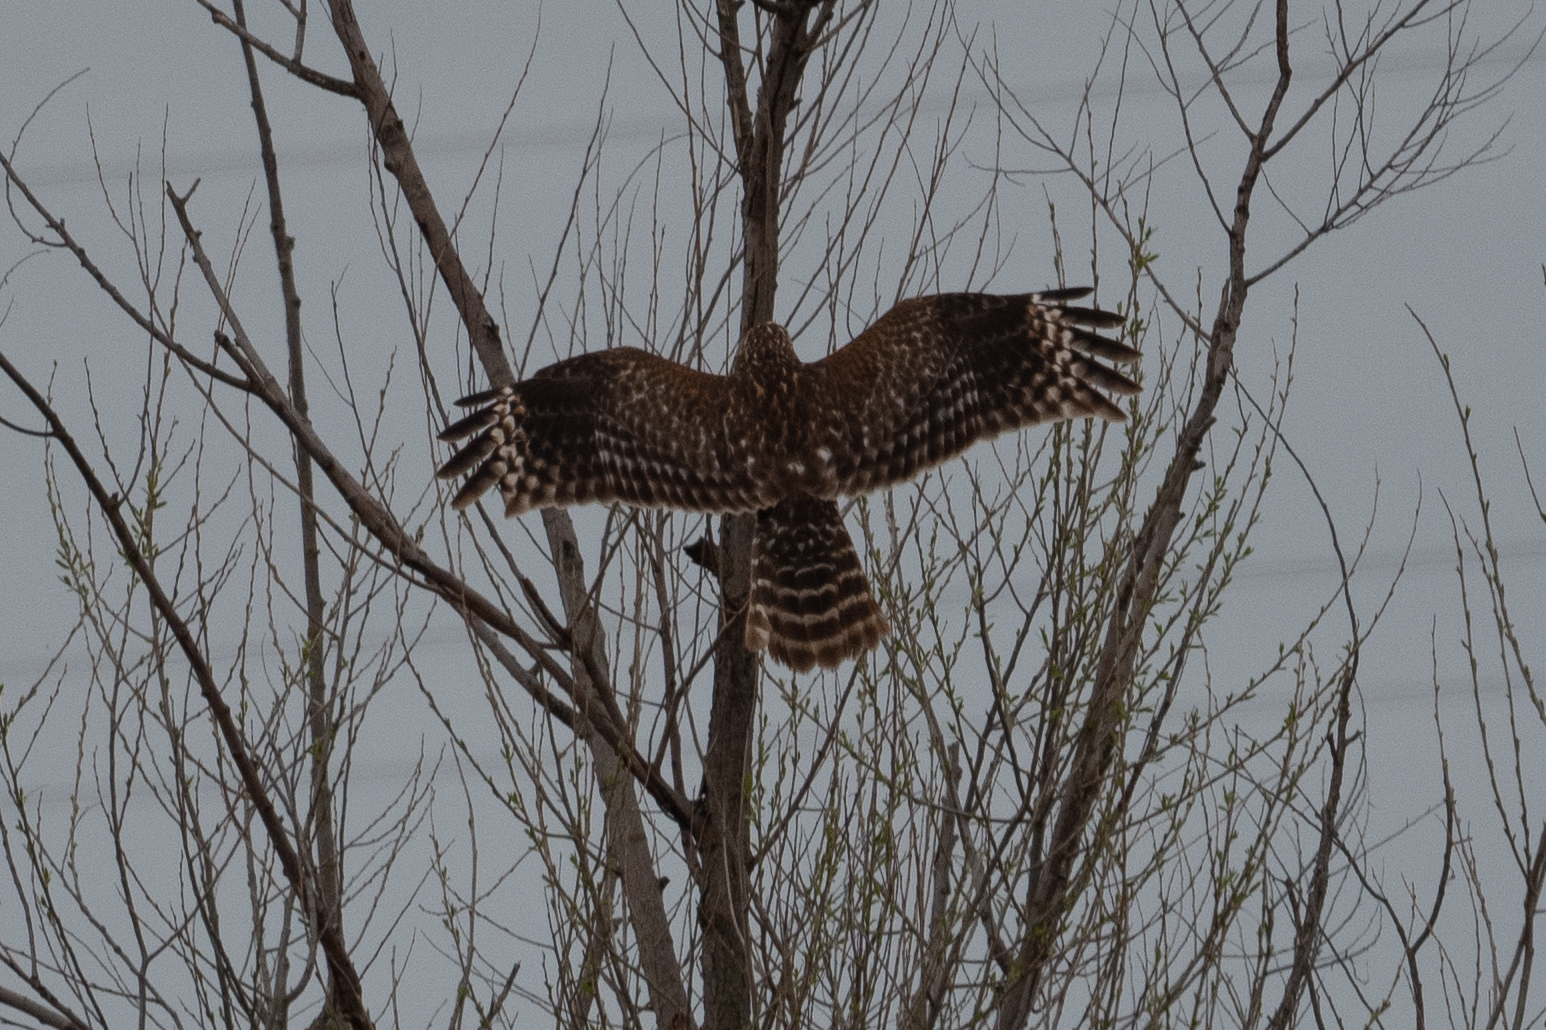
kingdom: Animalia
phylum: Chordata
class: Aves
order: Accipitriformes
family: Accipitridae
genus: Buteo
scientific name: Buteo lineatus
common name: Red-shouldered hawk
